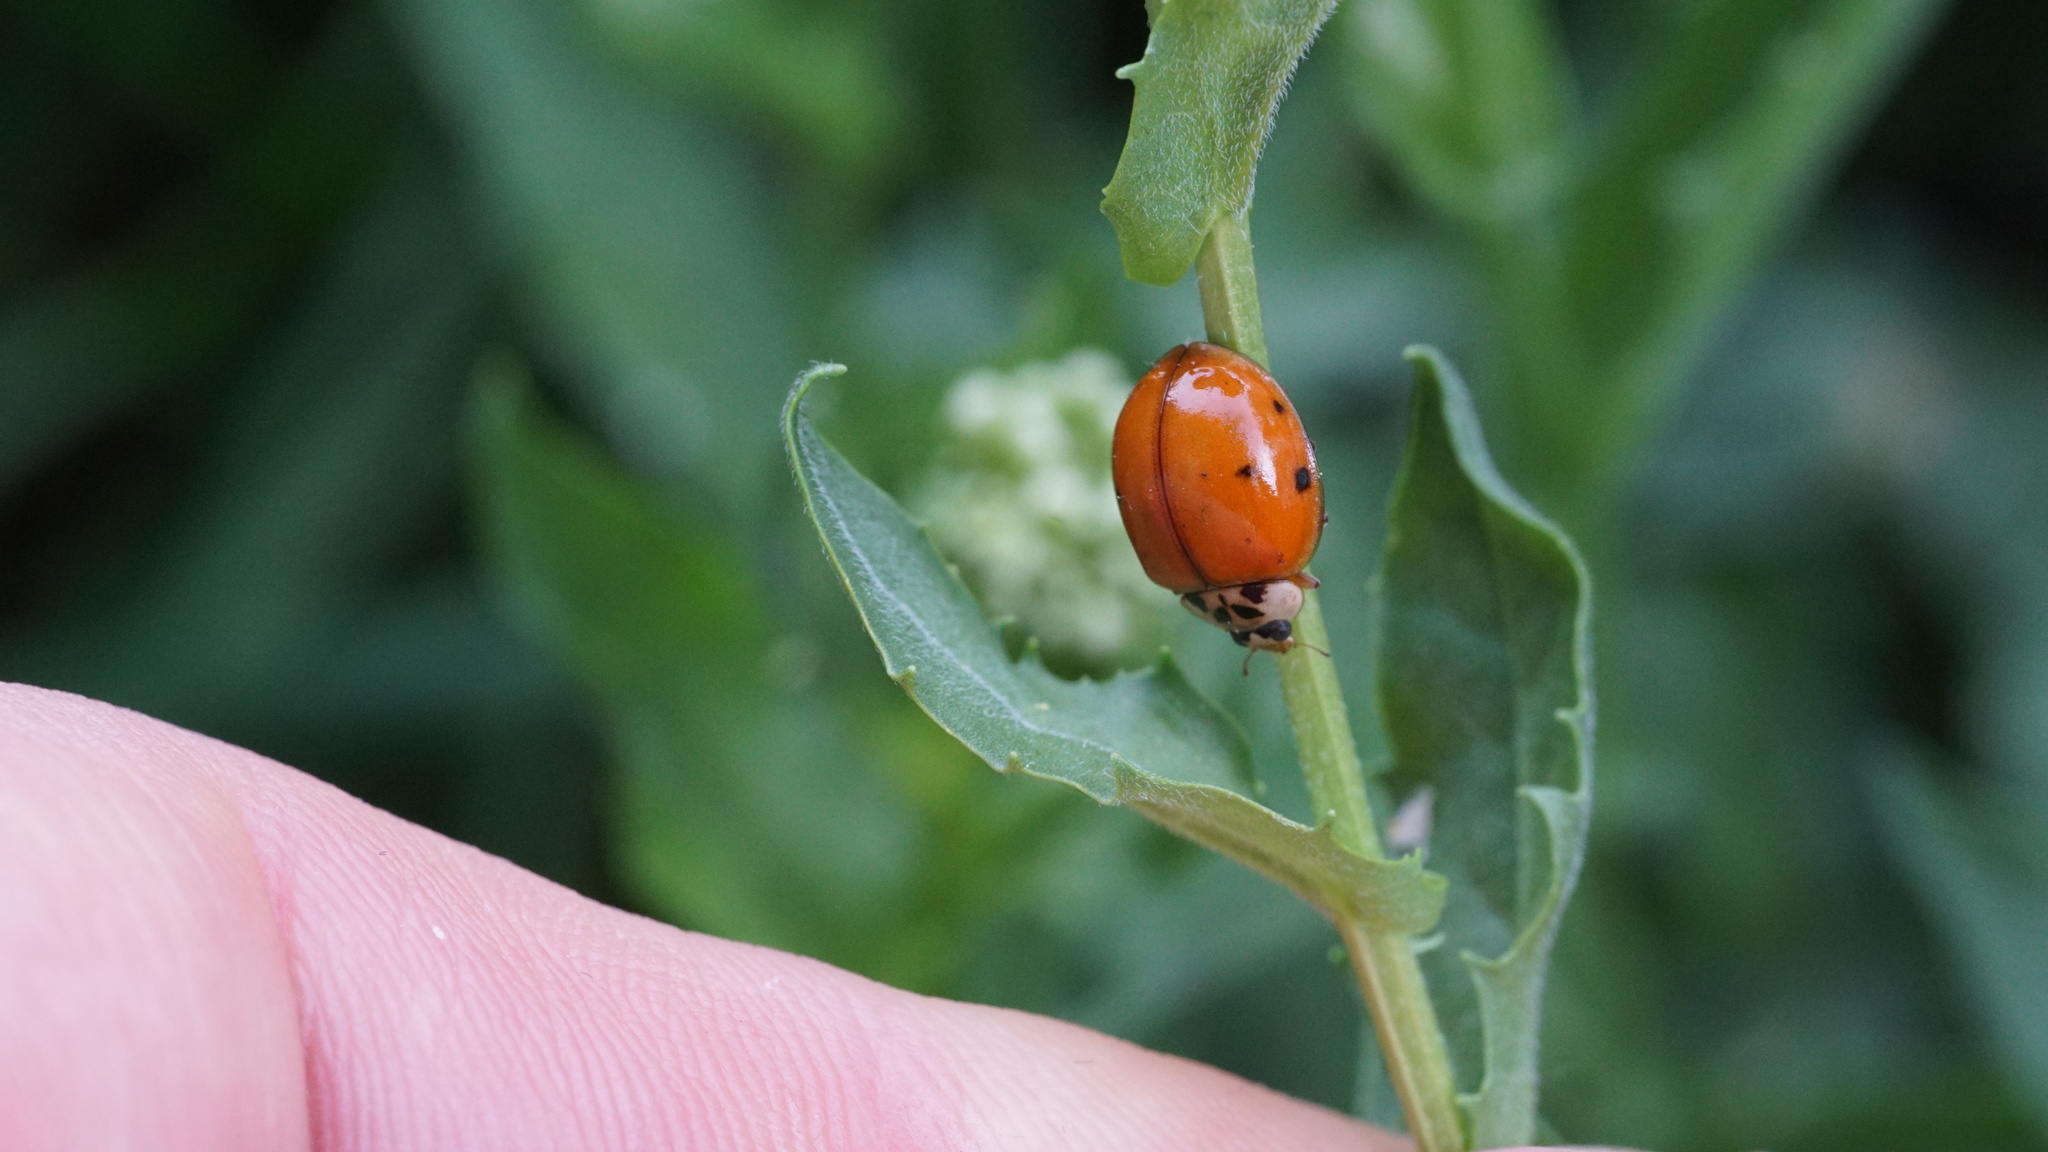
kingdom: Animalia
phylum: Arthropoda
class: Insecta
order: Coleoptera
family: Coccinellidae
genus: Harmonia
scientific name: Harmonia axyridis
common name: Harlequin ladybird
